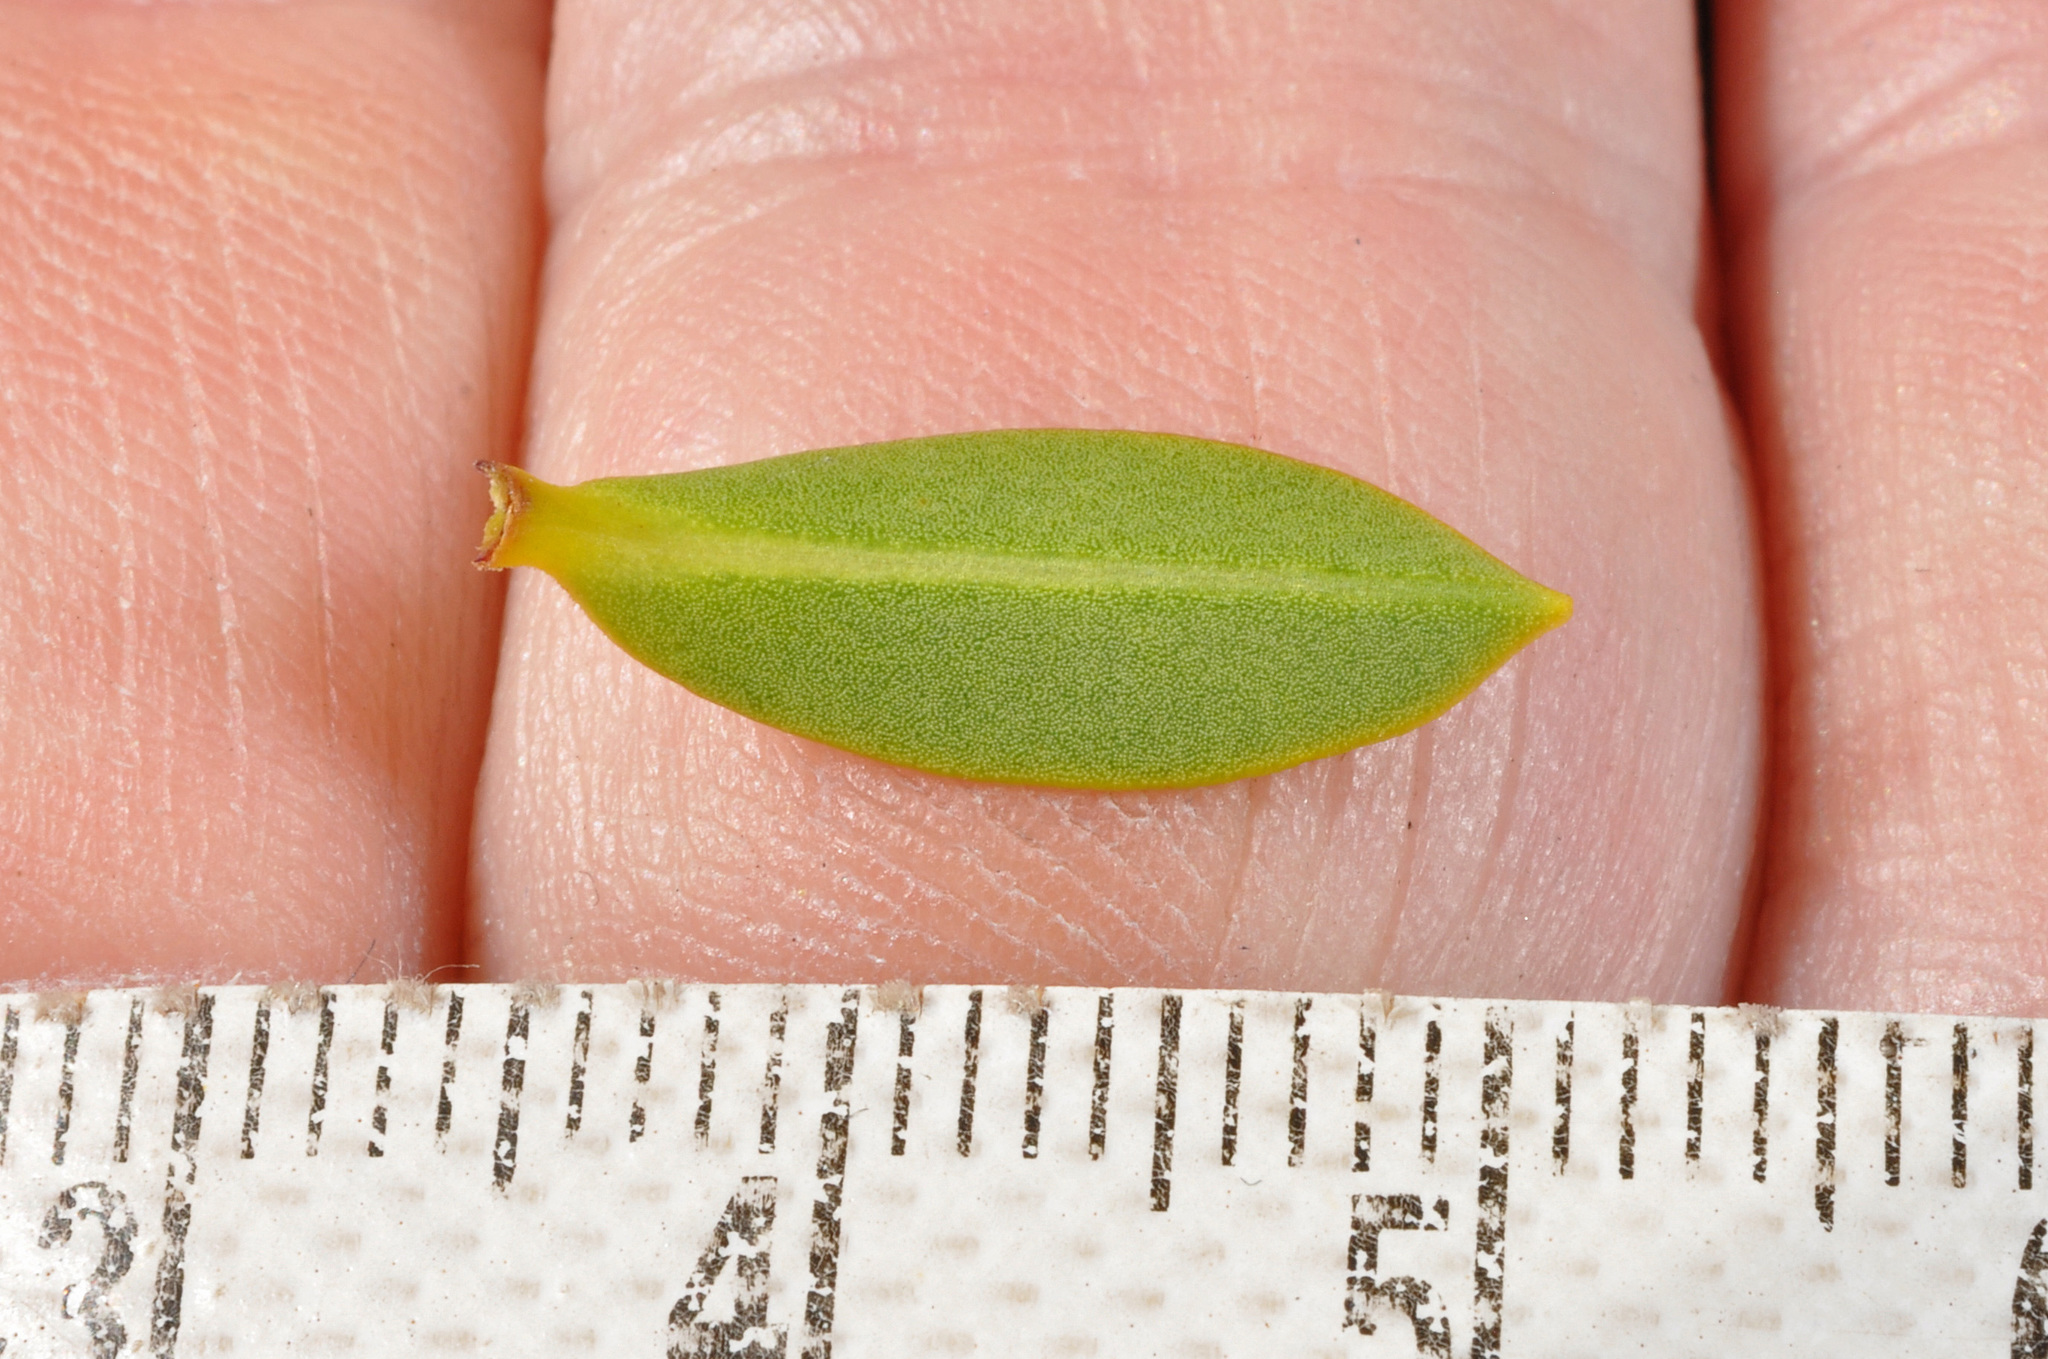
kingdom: Plantae
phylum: Tracheophyta
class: Magnoliopsida
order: Lamiales
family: Plantaginaceae
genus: Veronica
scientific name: Veronica venustula
